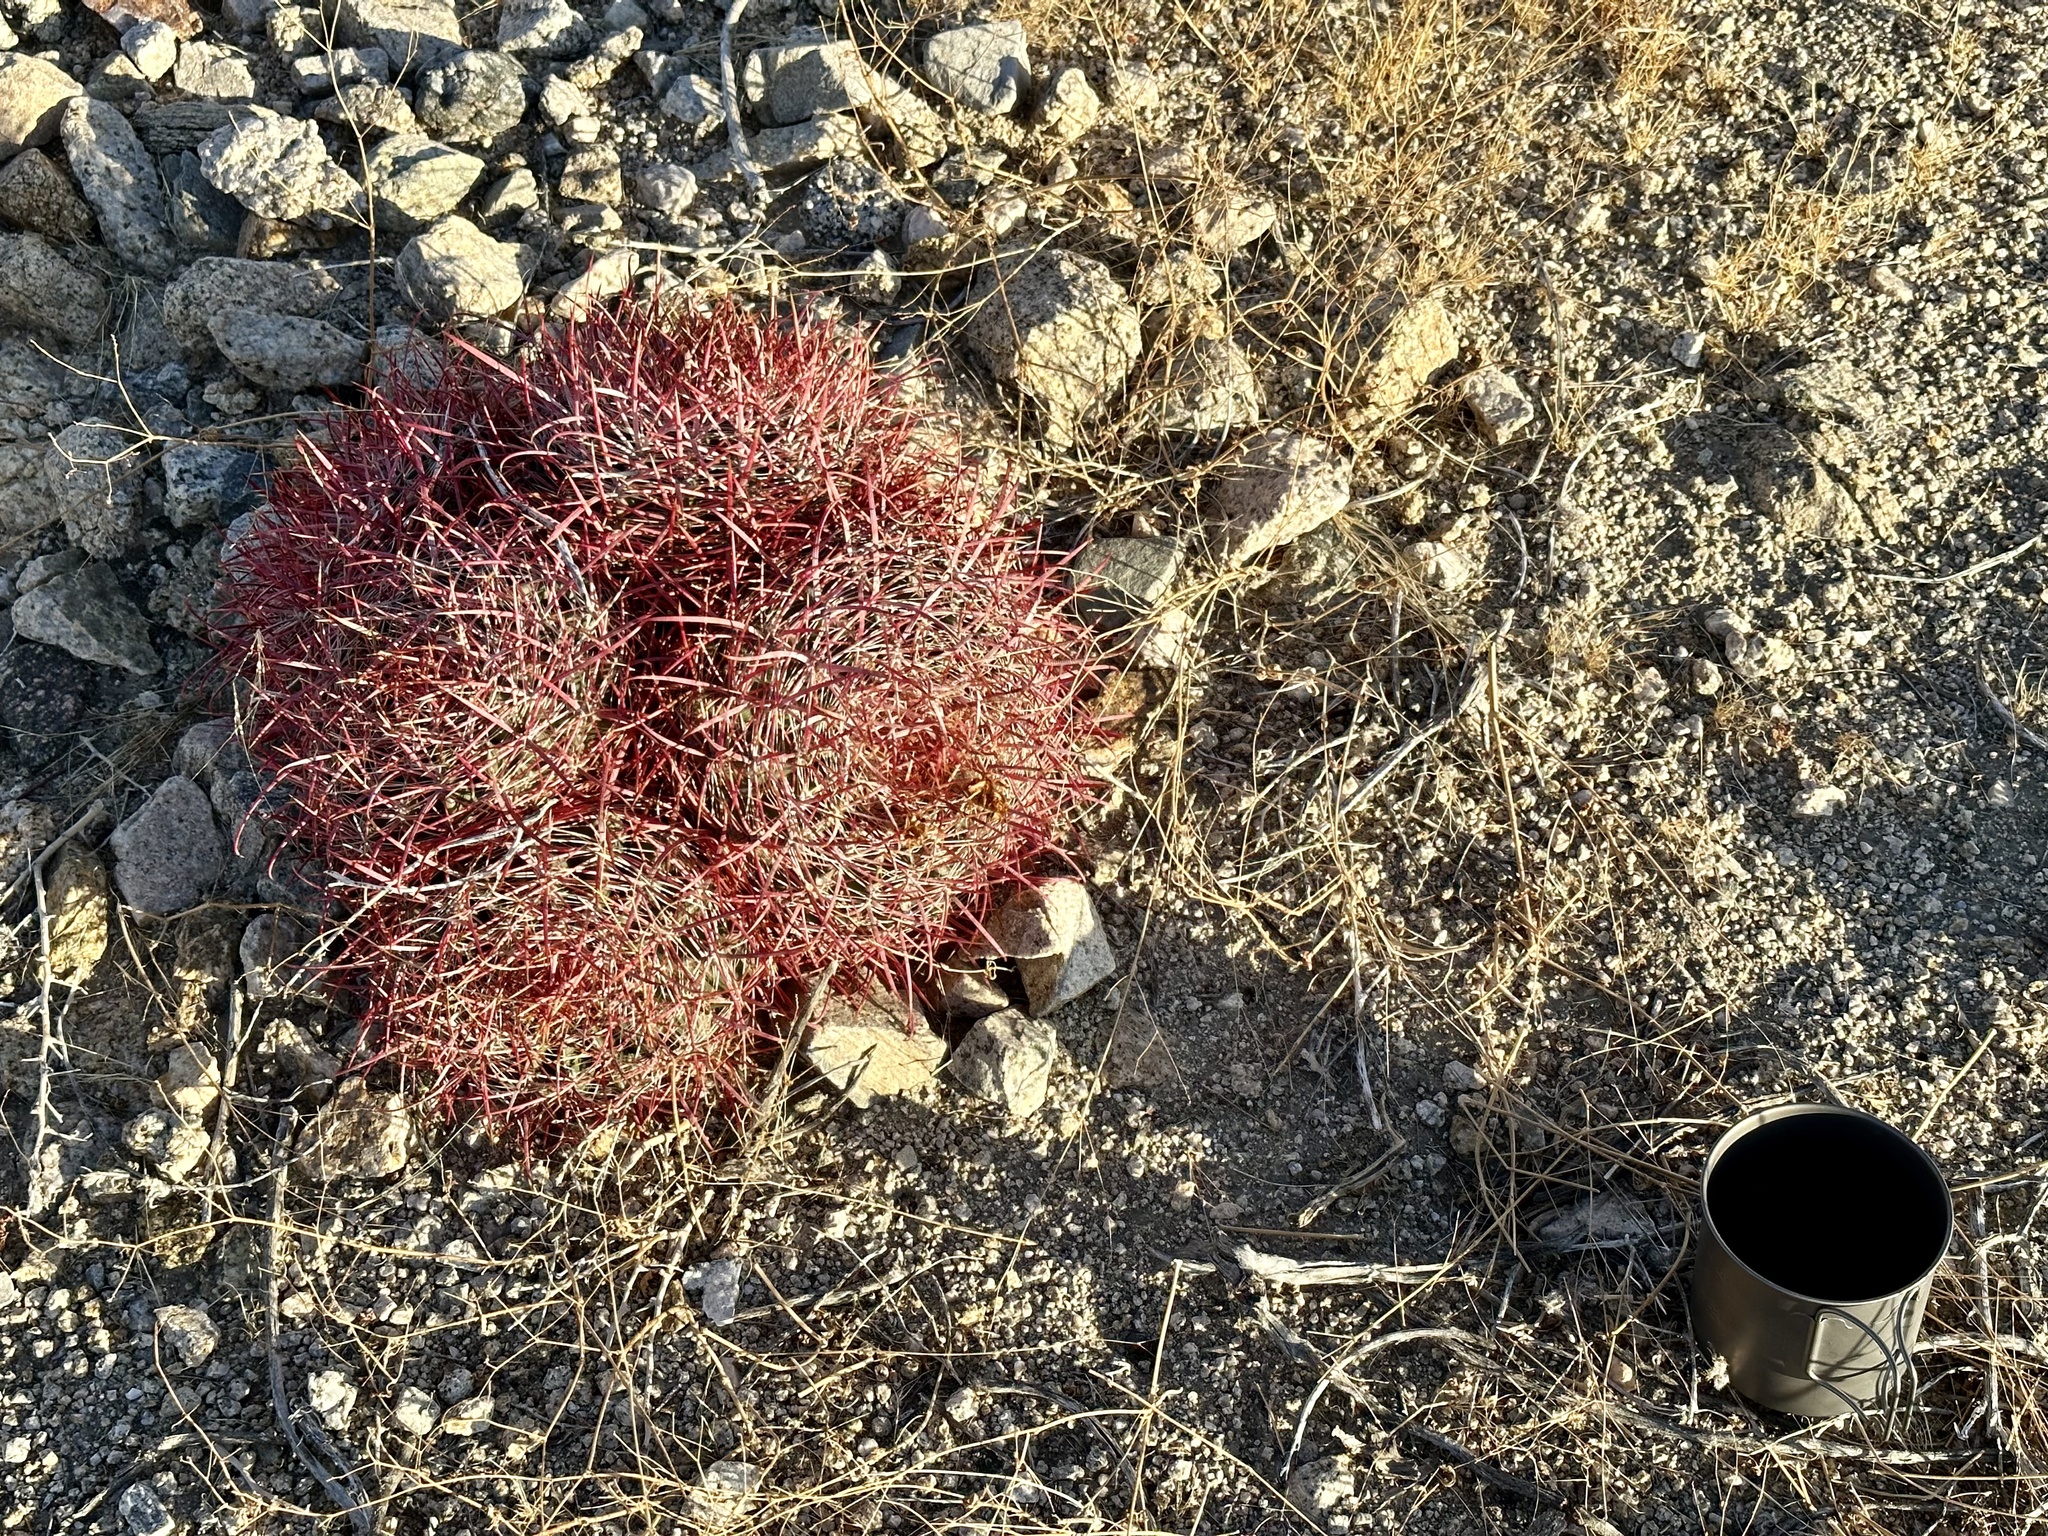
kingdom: Plantae
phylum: Tracheophyta
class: Magnoliopsida
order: Caryophyllales
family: Cactaceae
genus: Ferocactus
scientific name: Ferocactus cylindraceus
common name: California barrel cactus
